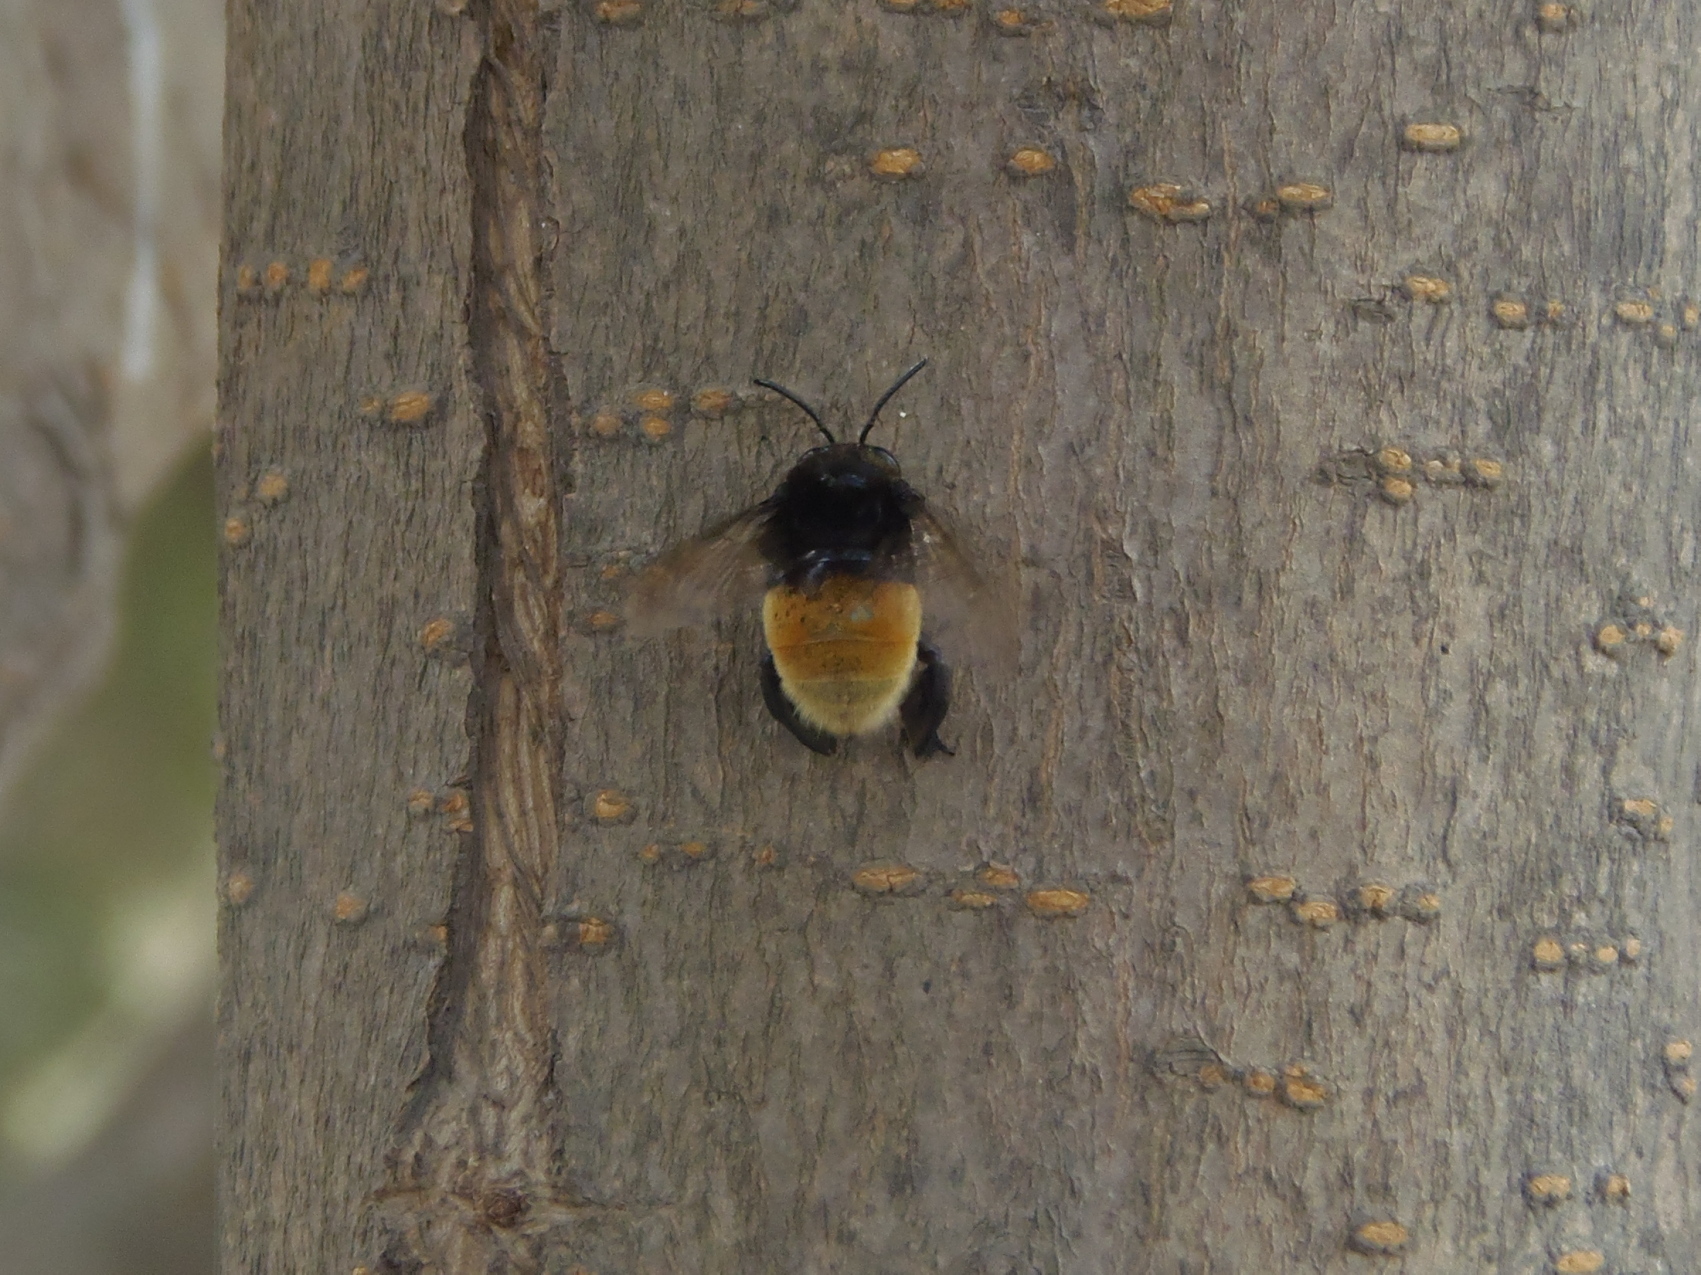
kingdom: Animalia
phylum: Arthropoda
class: Insecta
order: Hymenoptera
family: Apidae
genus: Eulaema
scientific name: Eulaema polychroma
